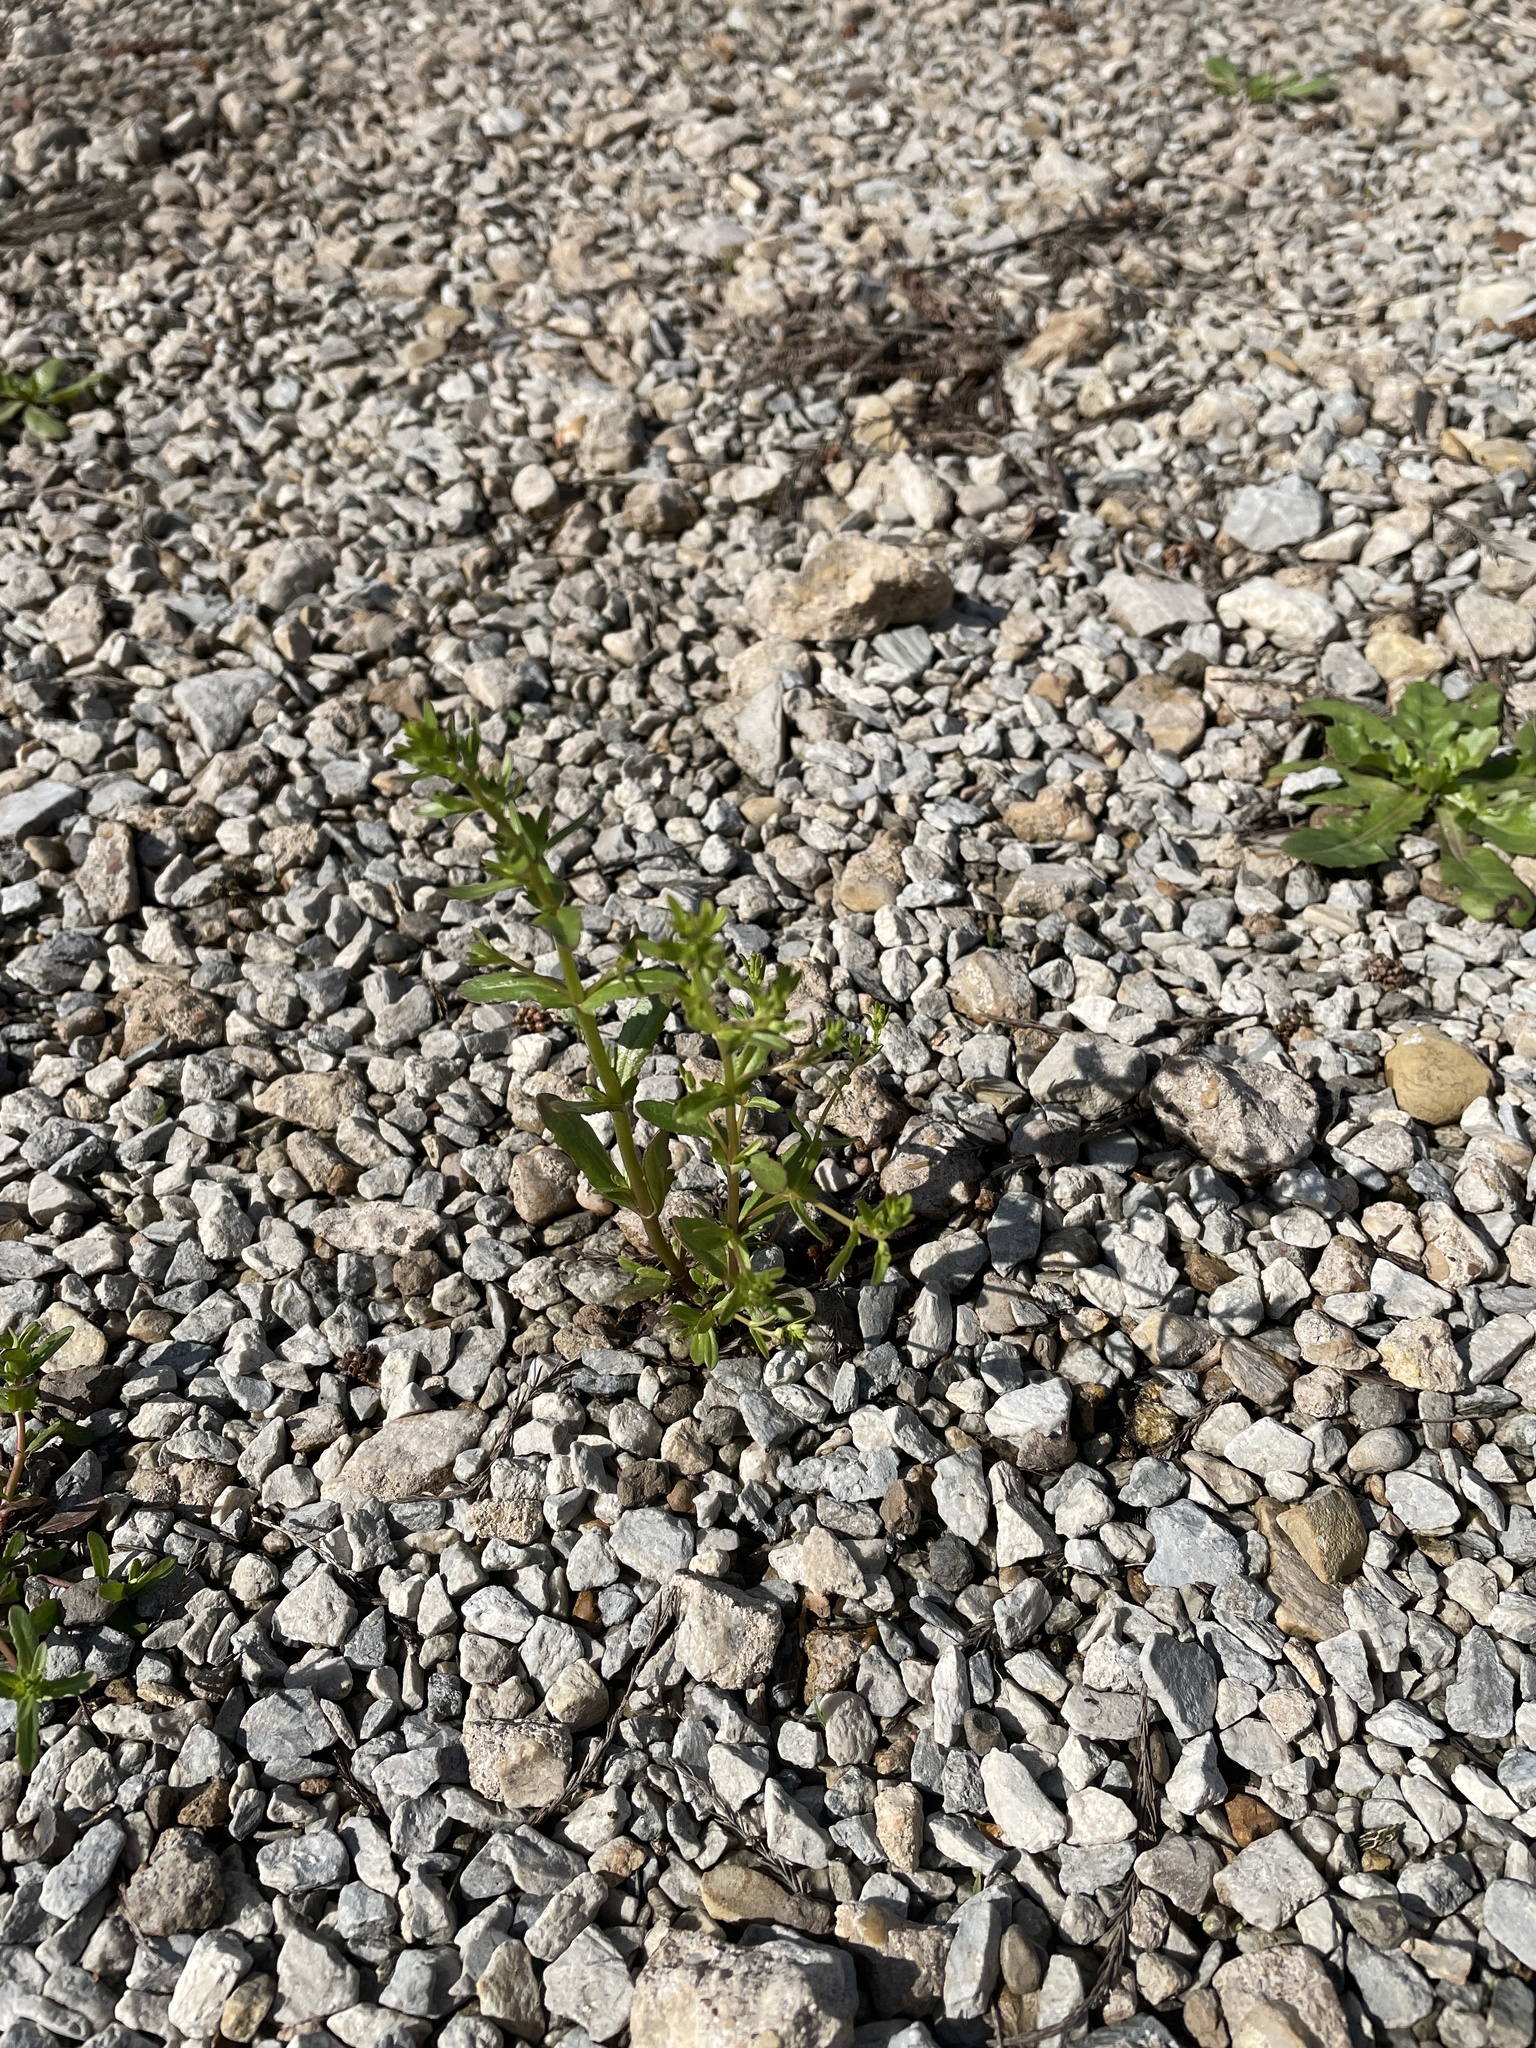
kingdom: Plantae
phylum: Tracheophyta
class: Magnoliopsida
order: Lamiales
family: Plantaginaceae
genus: Veronica
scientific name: Veronica peregrina
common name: Neckweed
